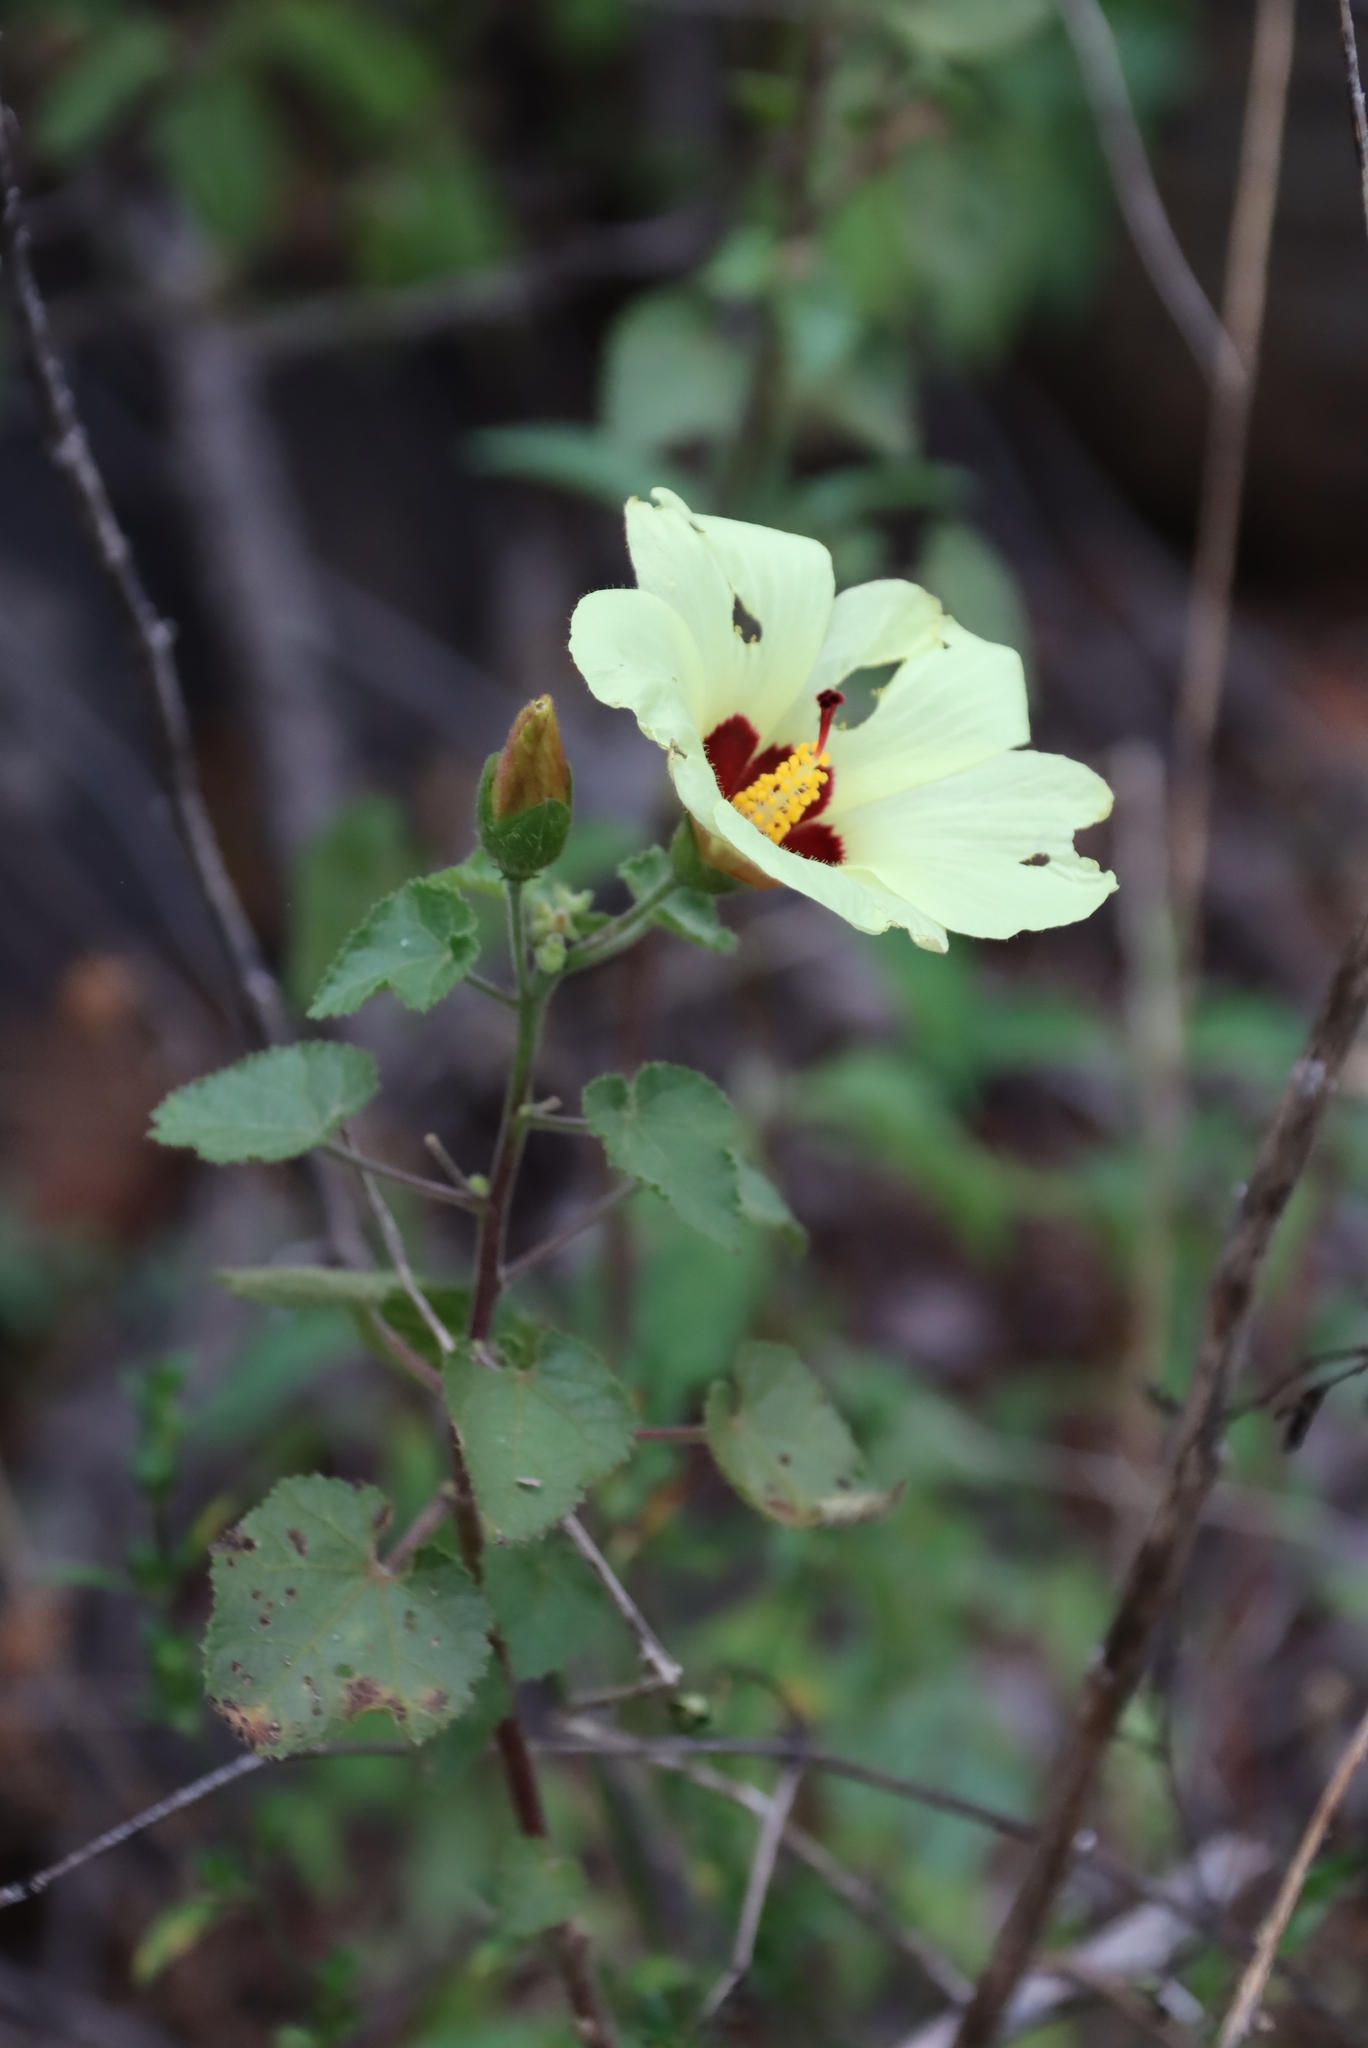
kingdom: Plantae
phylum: Tracheophyta
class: Magnoliopsida
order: Malvales
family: Malvaceae
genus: Hibiscus
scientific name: Hibiscus engleri
